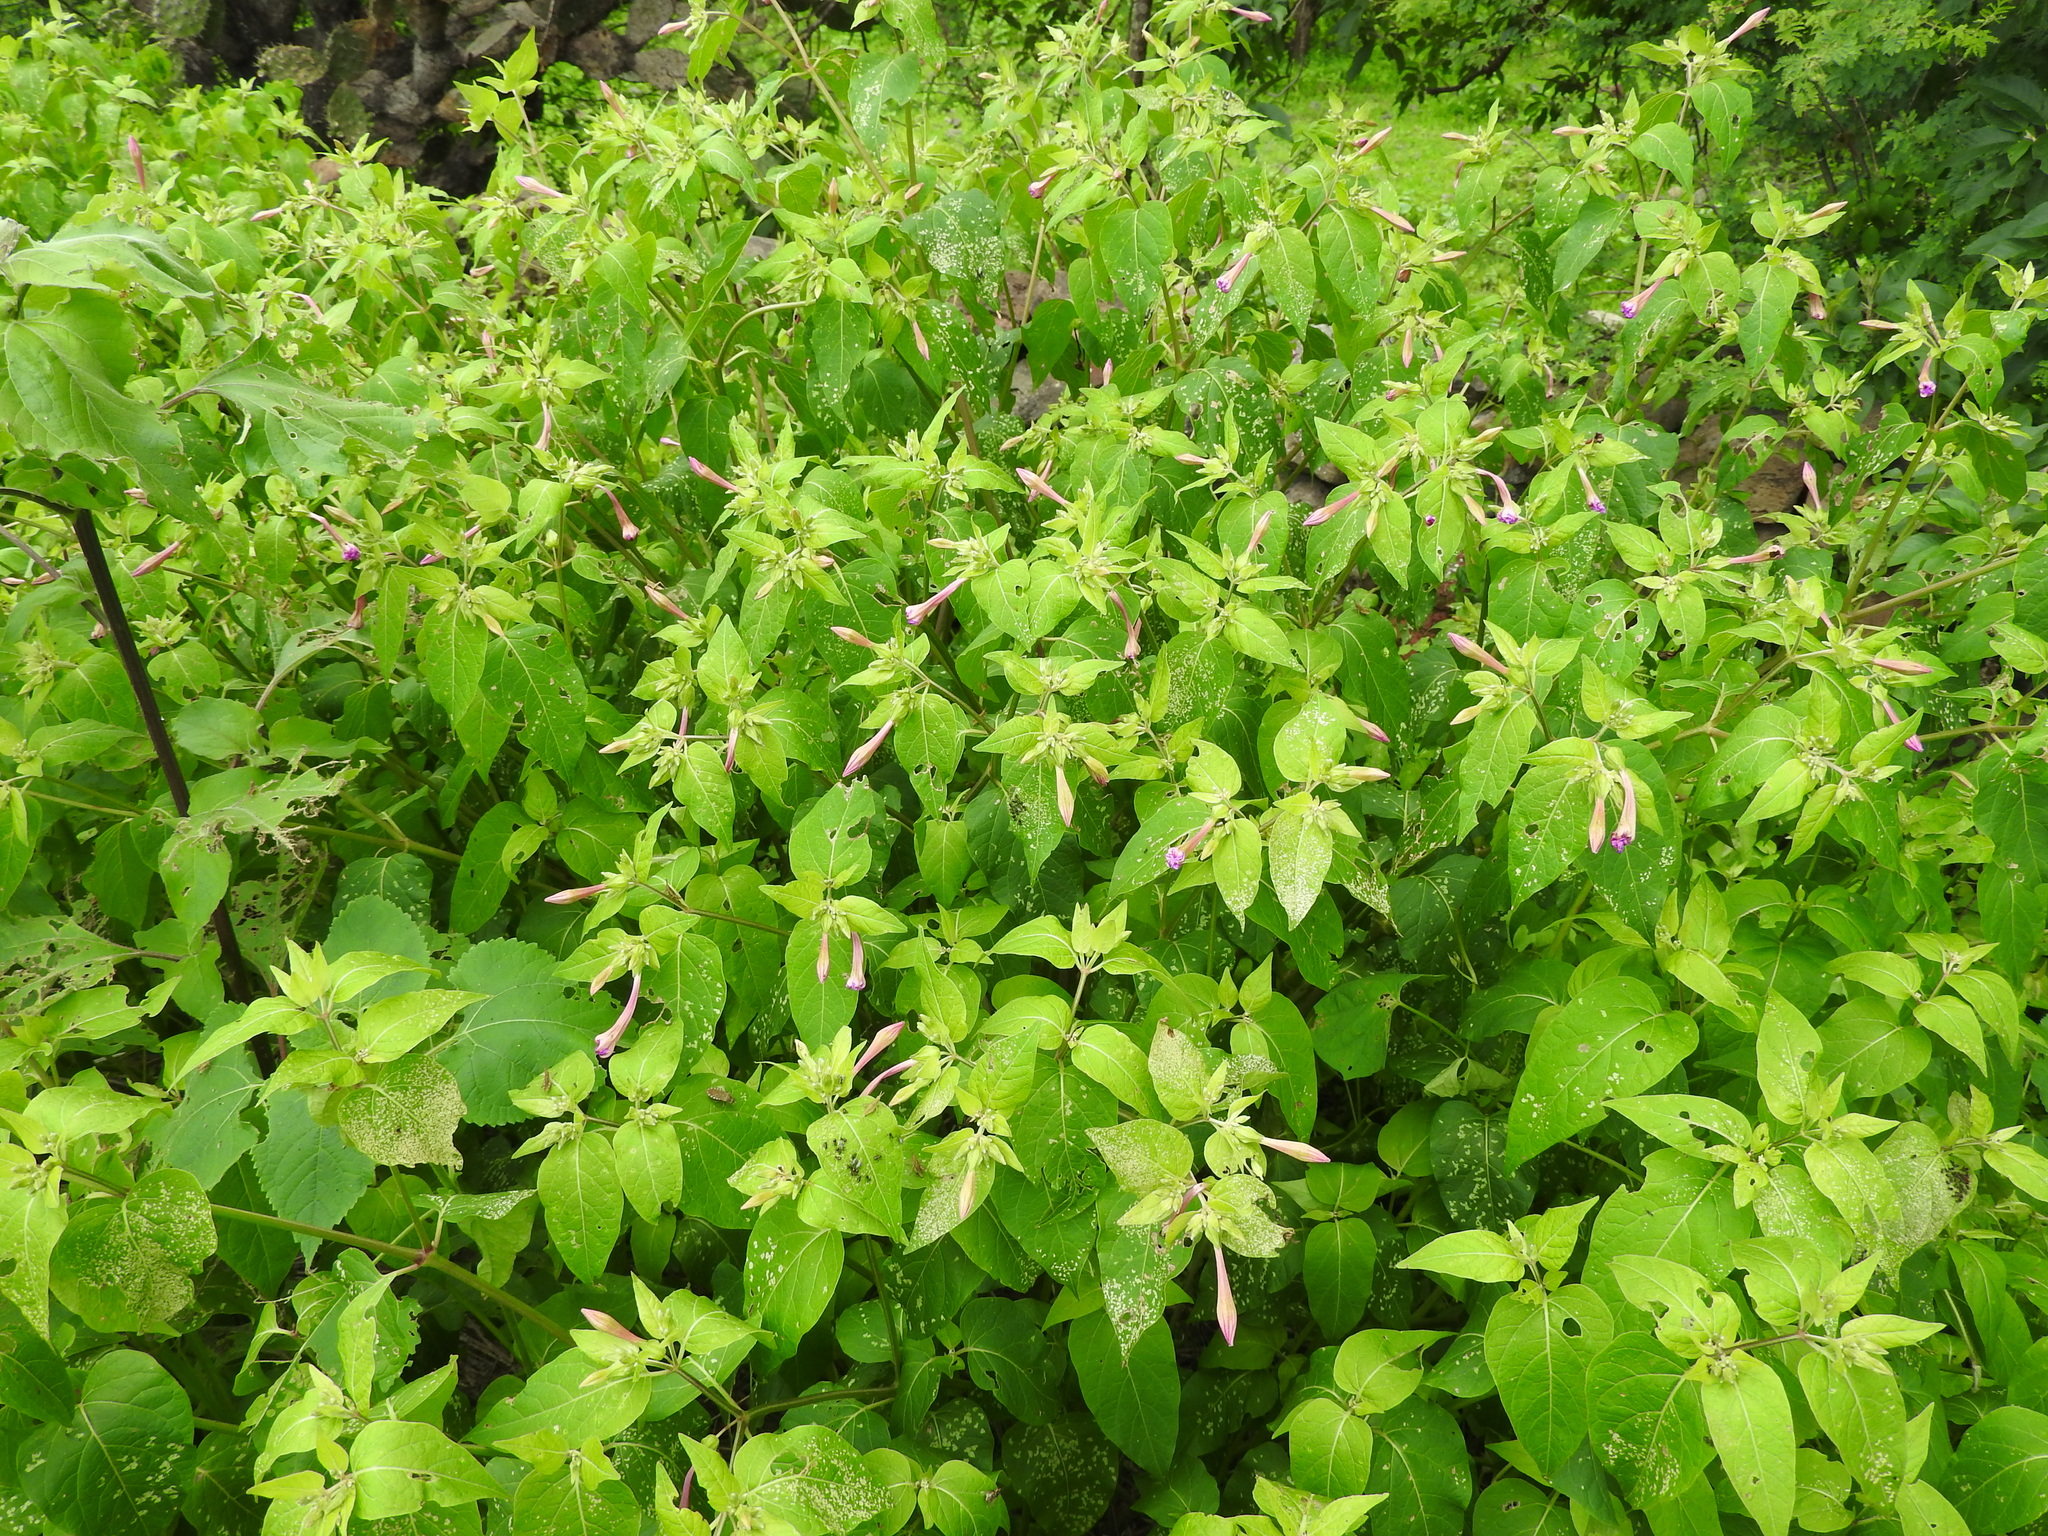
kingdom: Plantae
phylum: Tracheophyta
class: Magnoliopsida
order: Caryophyllales
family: Nyctaginaceae
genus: Mirabilis
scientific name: Mirabilis jalapa
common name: Marvel-of-peru
